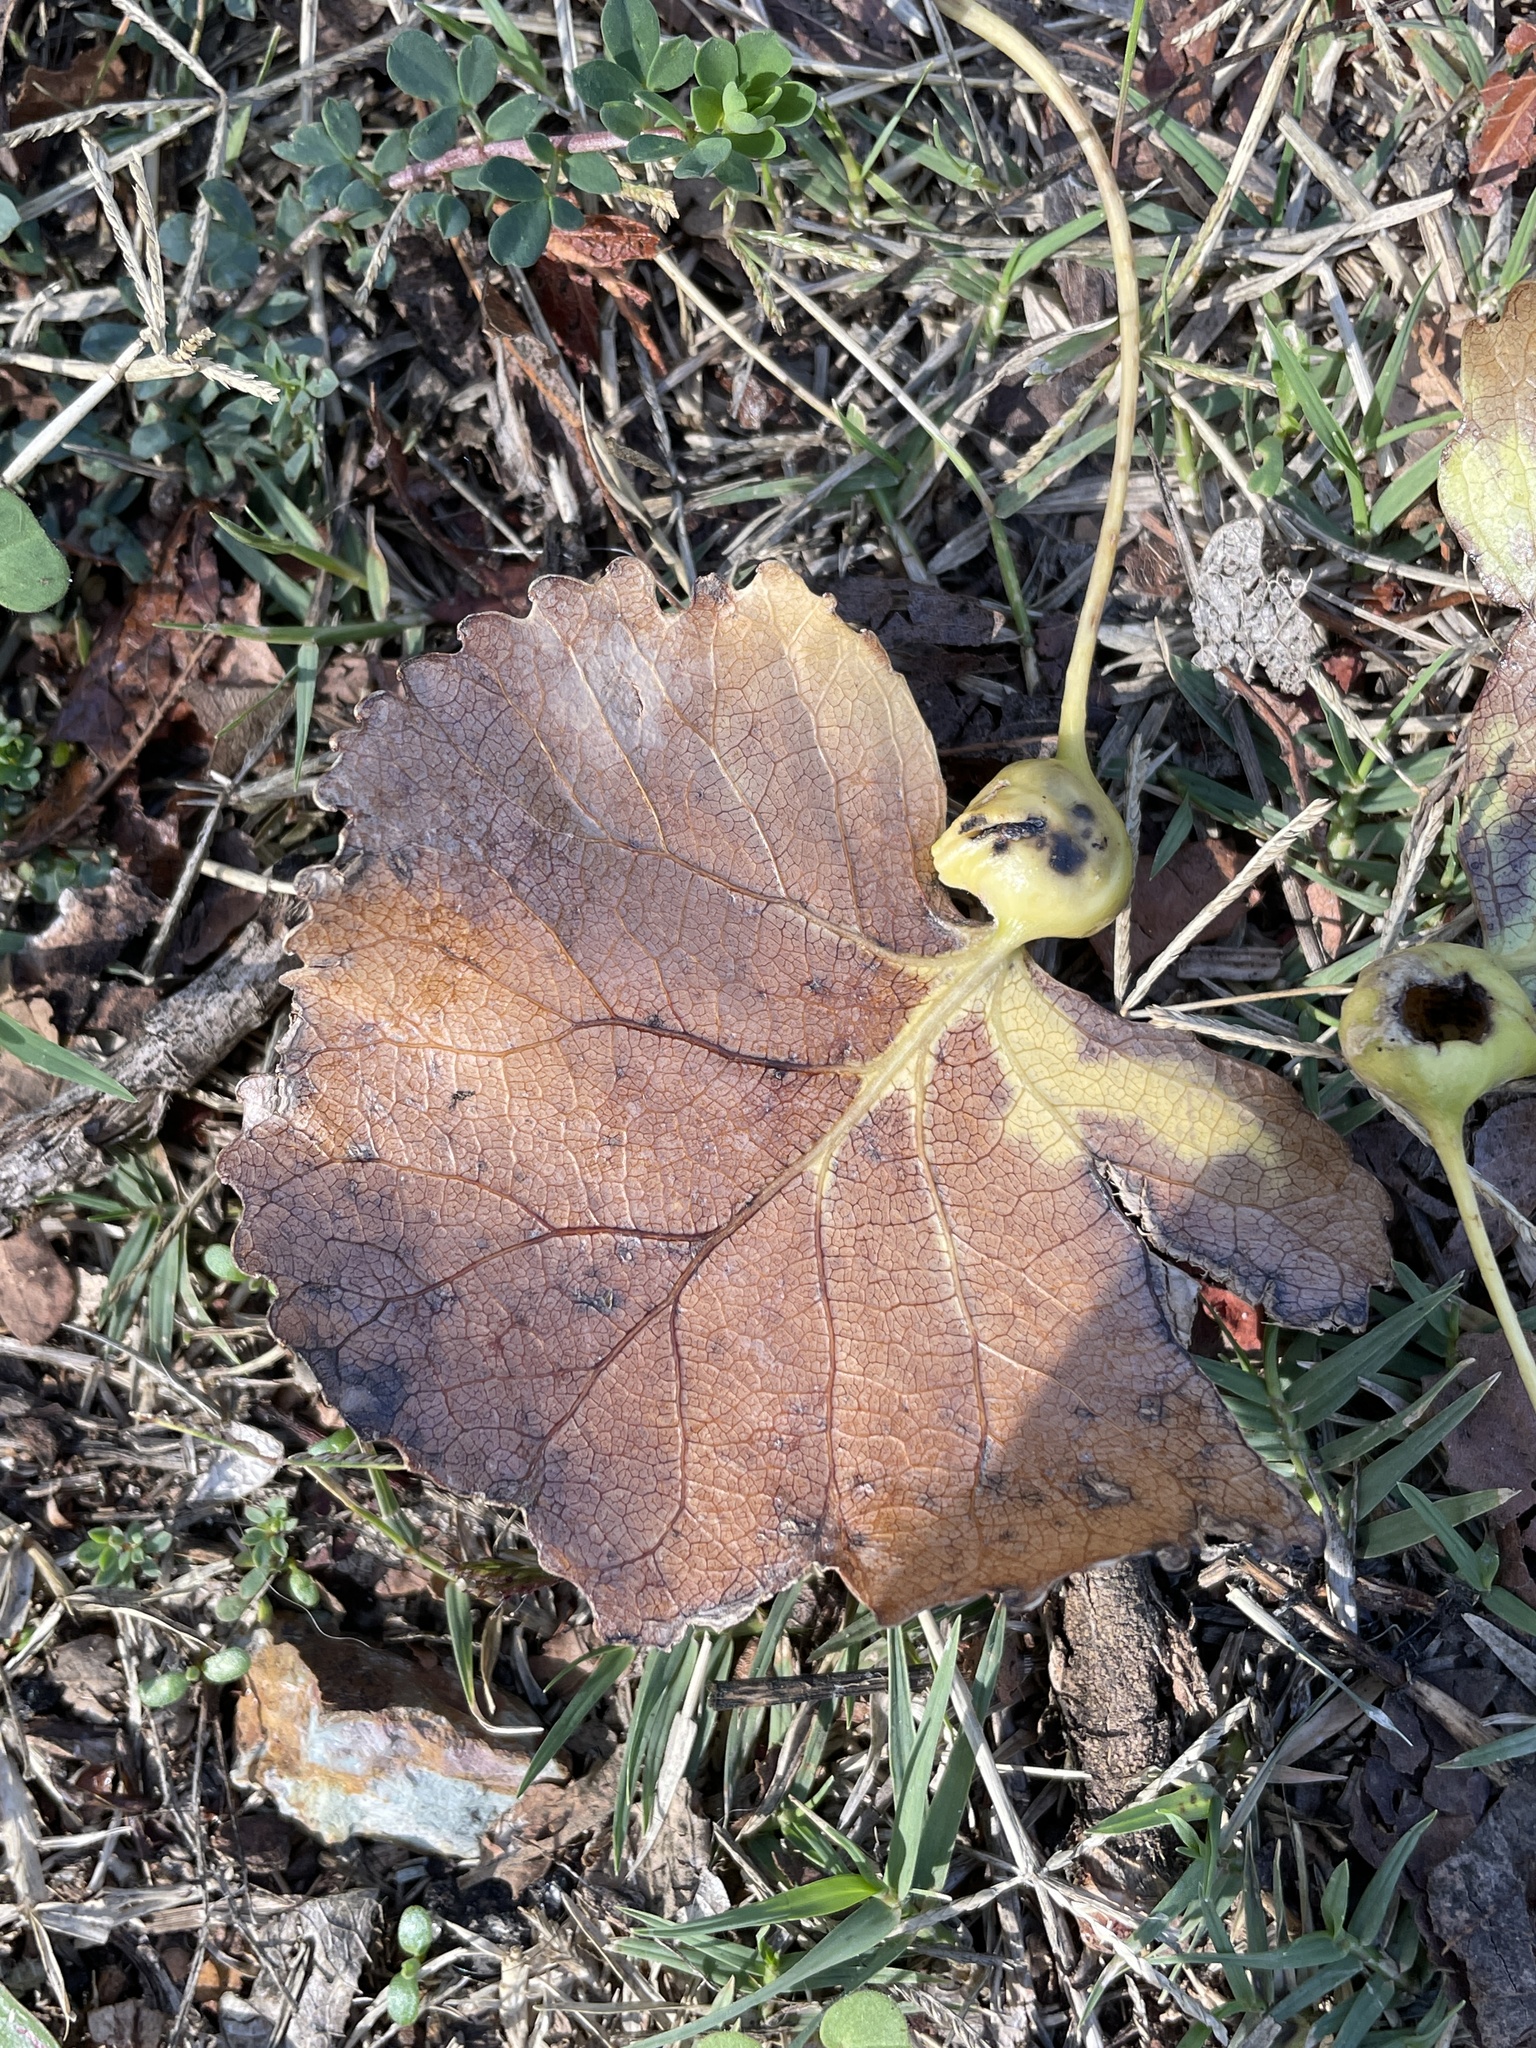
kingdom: Animalia
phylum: Arthropoda
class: Insecta
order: Hemiptera
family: Aphididae
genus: Pemphigus
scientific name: Pemphigus obesinymphae
